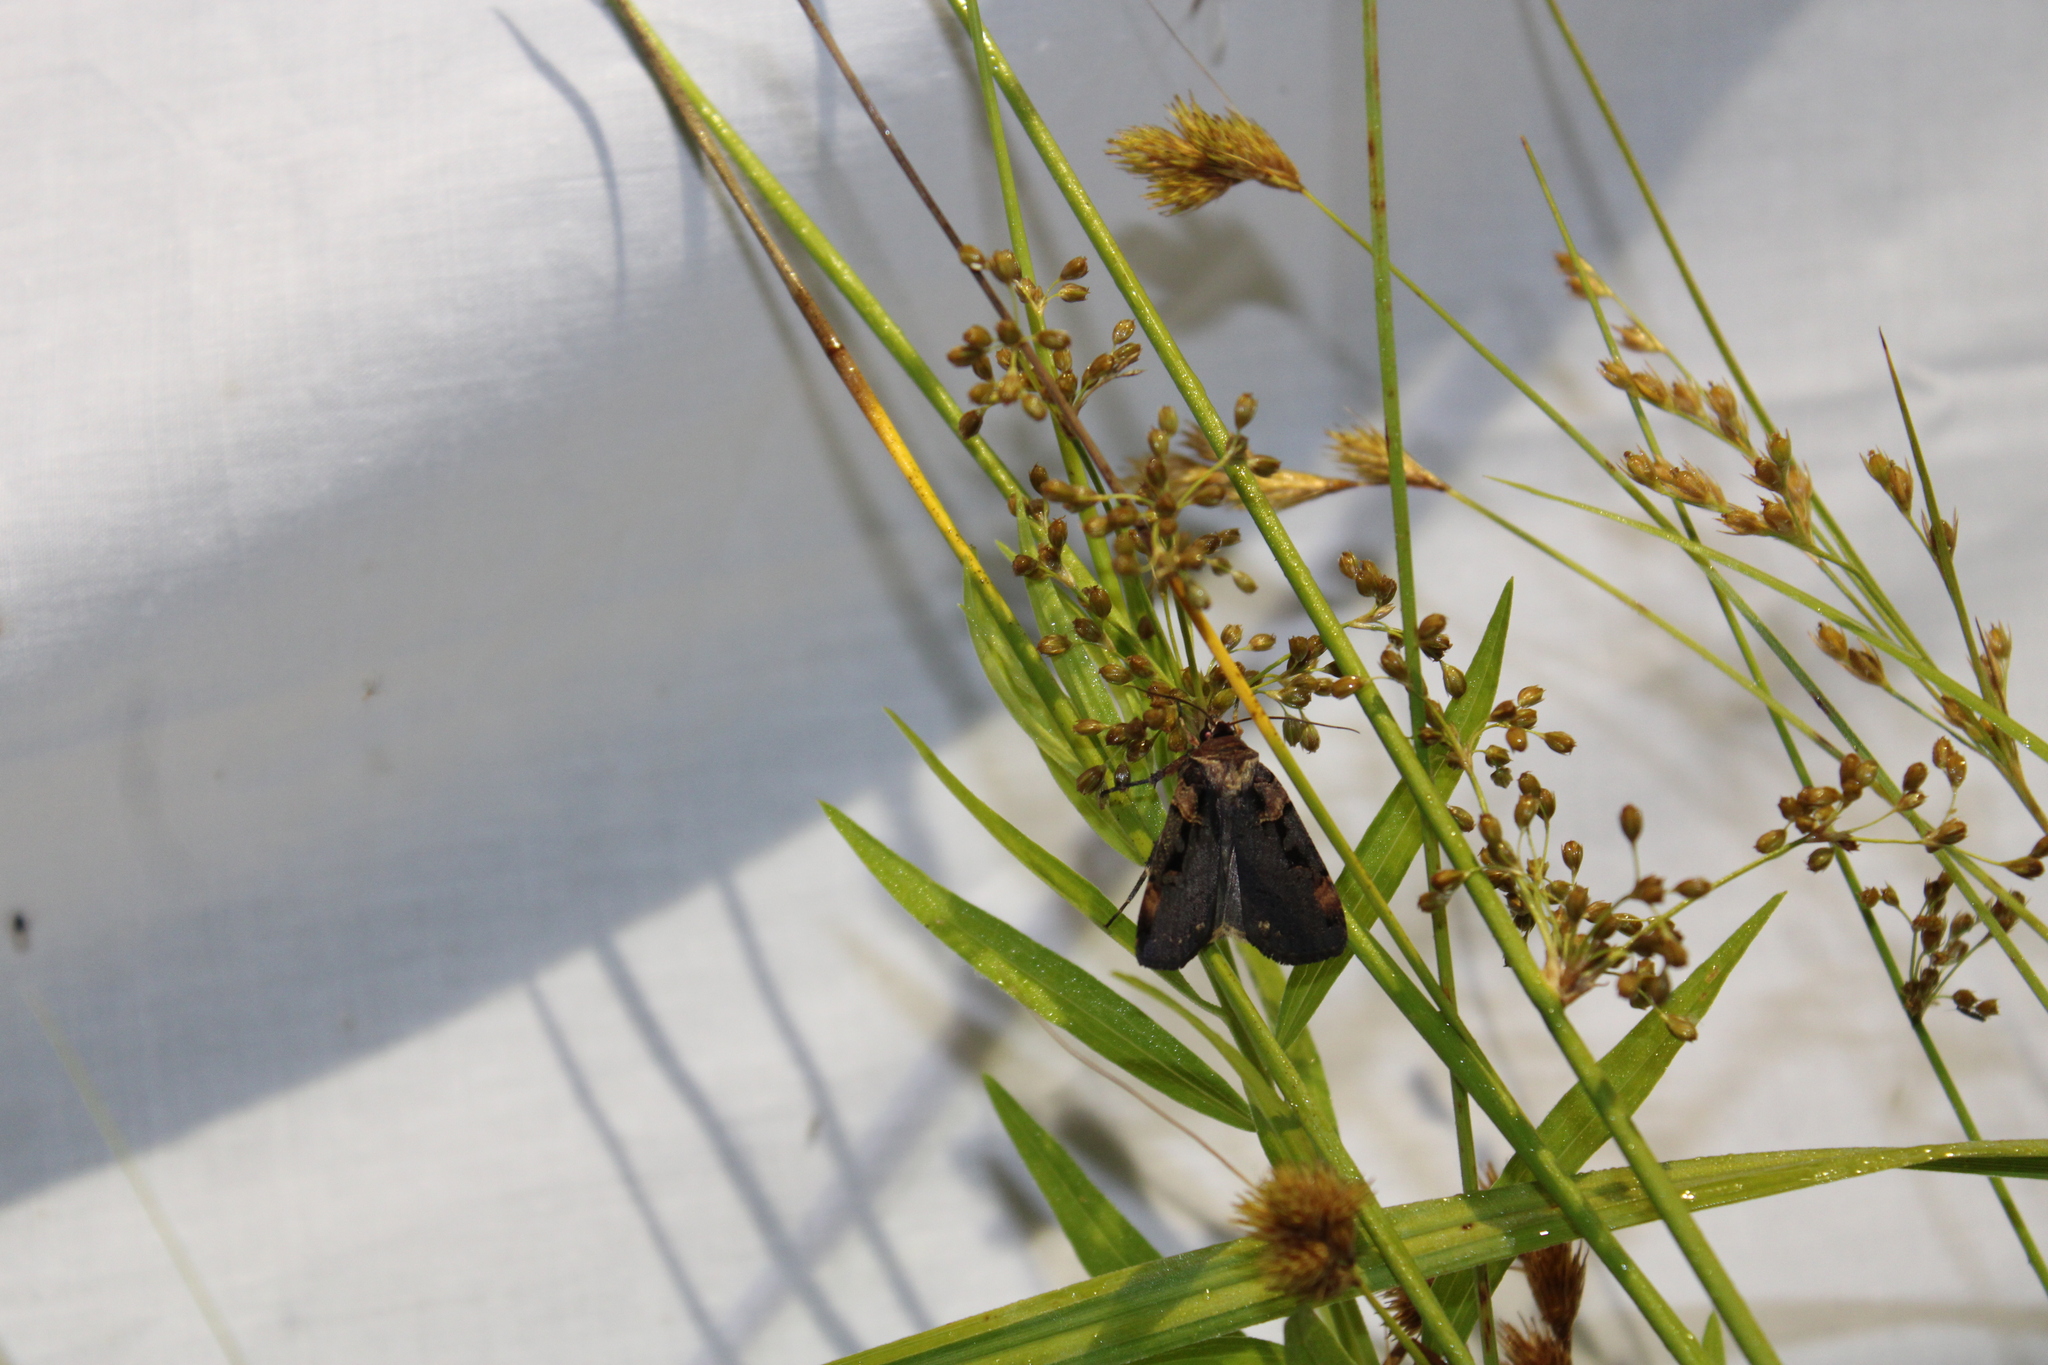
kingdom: Animalia
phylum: Arthropoda
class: Insecta
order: Lepidoptera
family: Noctuidae
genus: Pseudohermonassa
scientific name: Pseudohermonassa bicarnea
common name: Pink spotted dart
